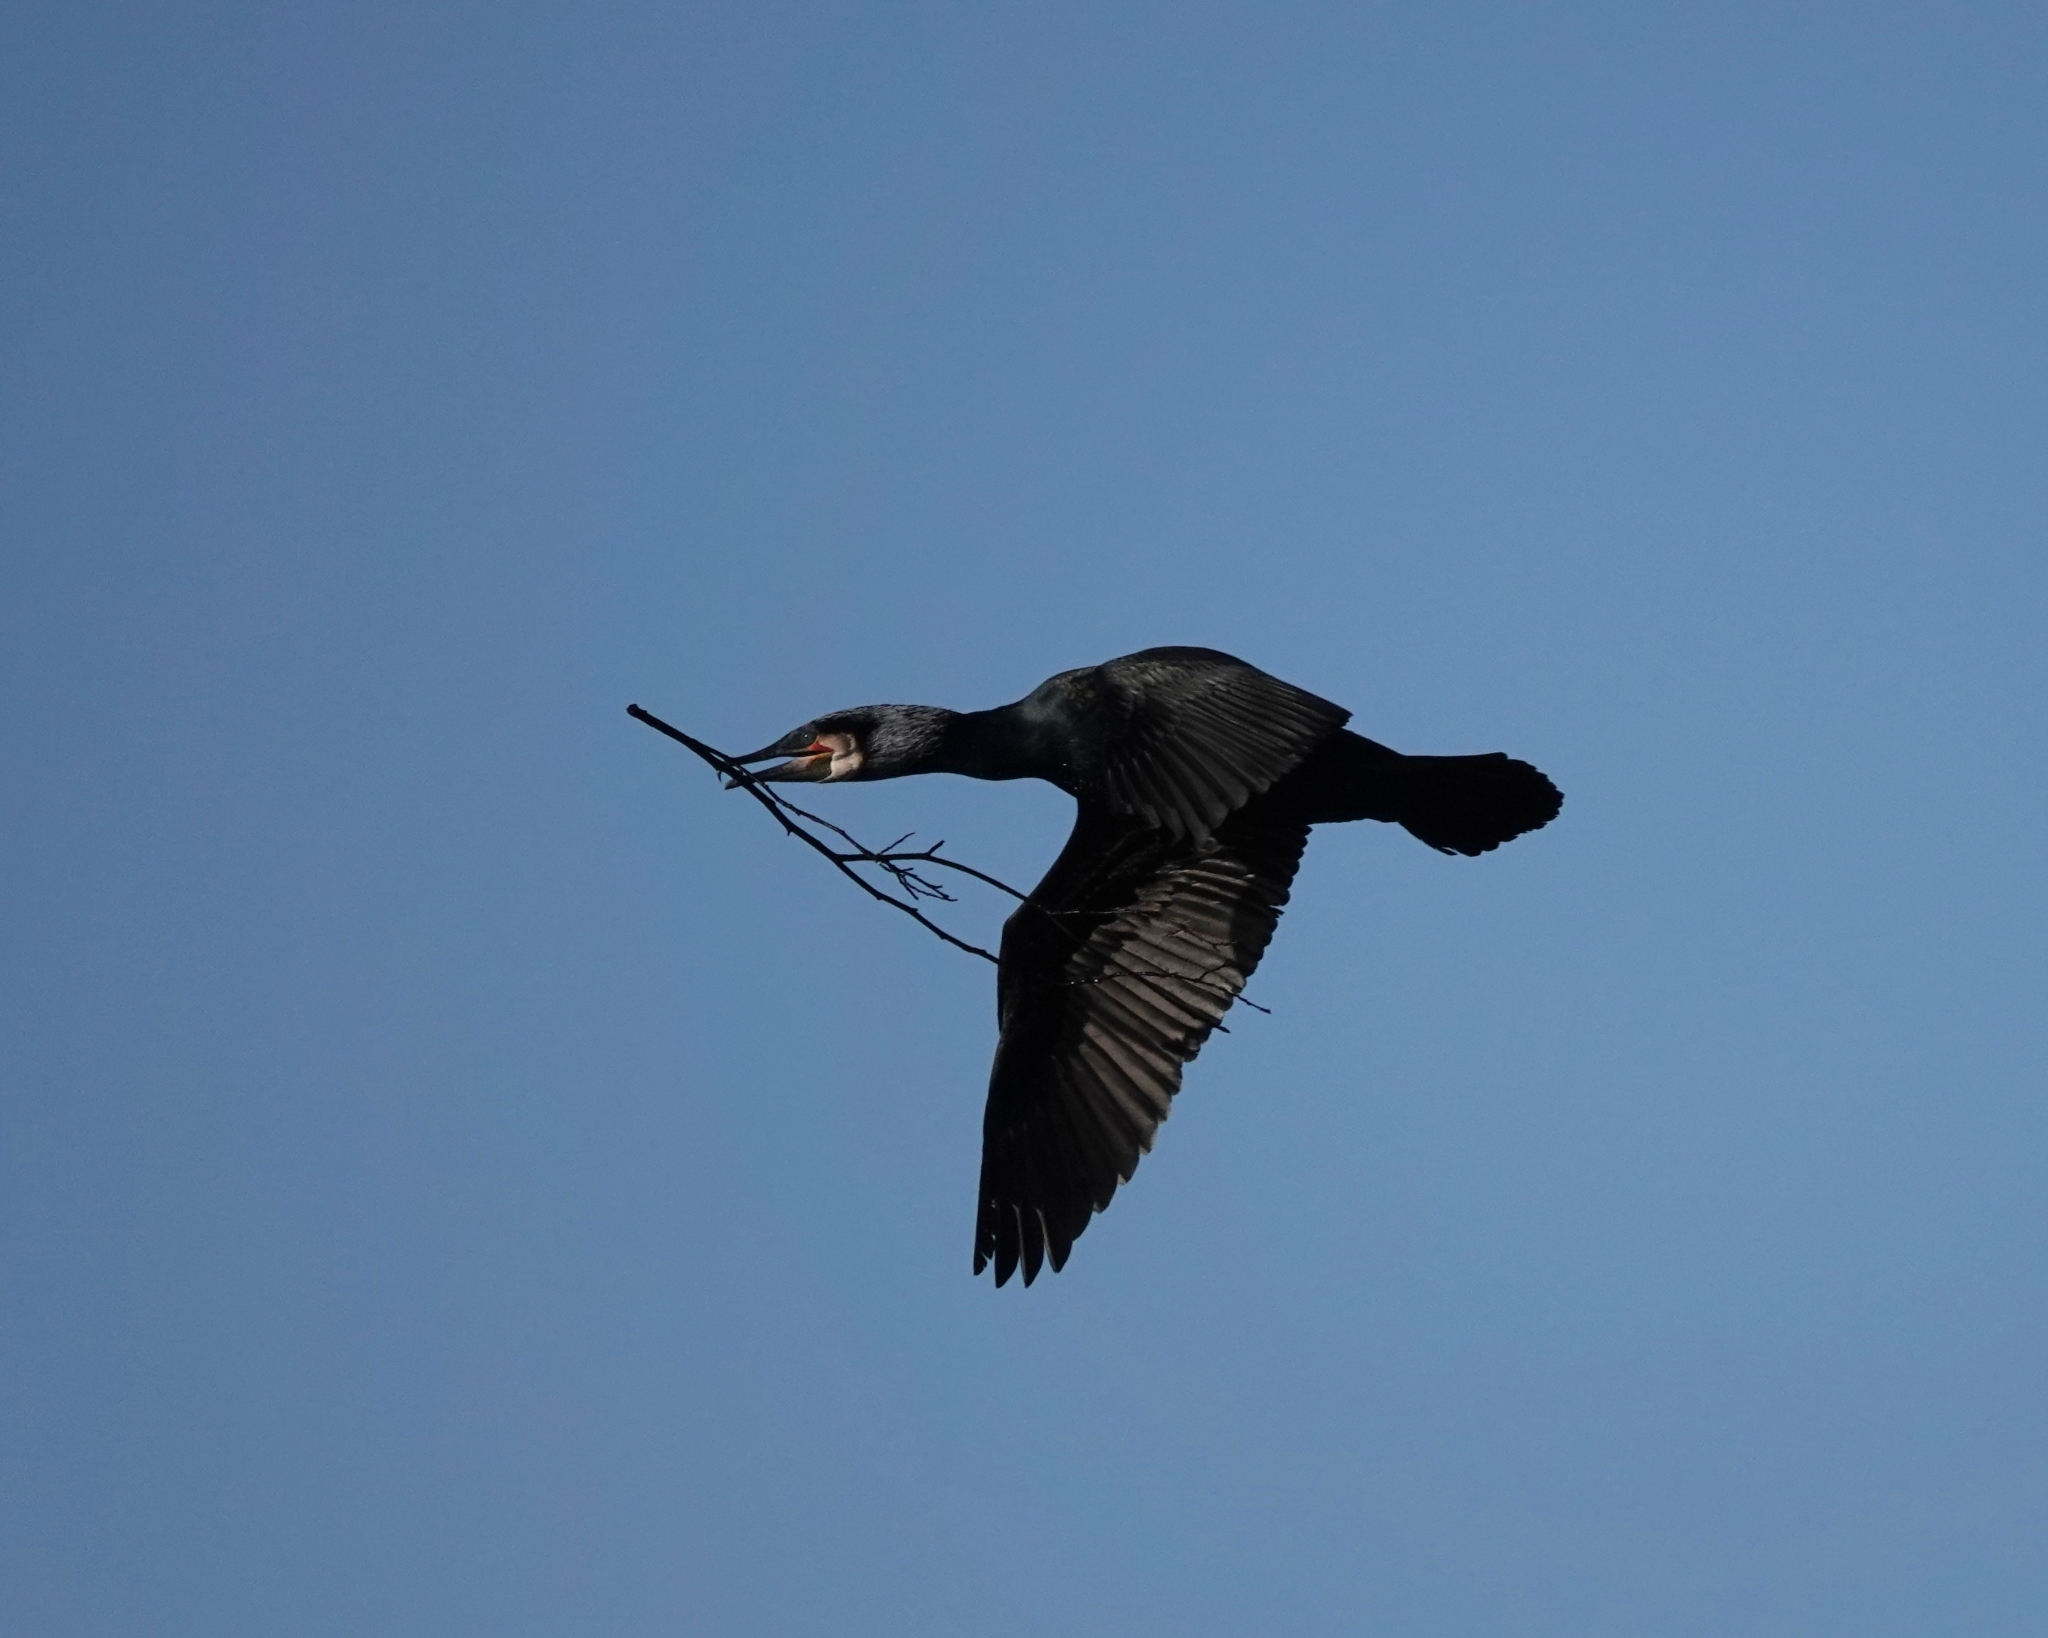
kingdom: Animalia
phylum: Chordata
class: Aves
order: Suliformes
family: Phalacrocoracidae
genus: Phalacrocorax
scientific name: Phalacrocorax carbo
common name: Great cormorant
